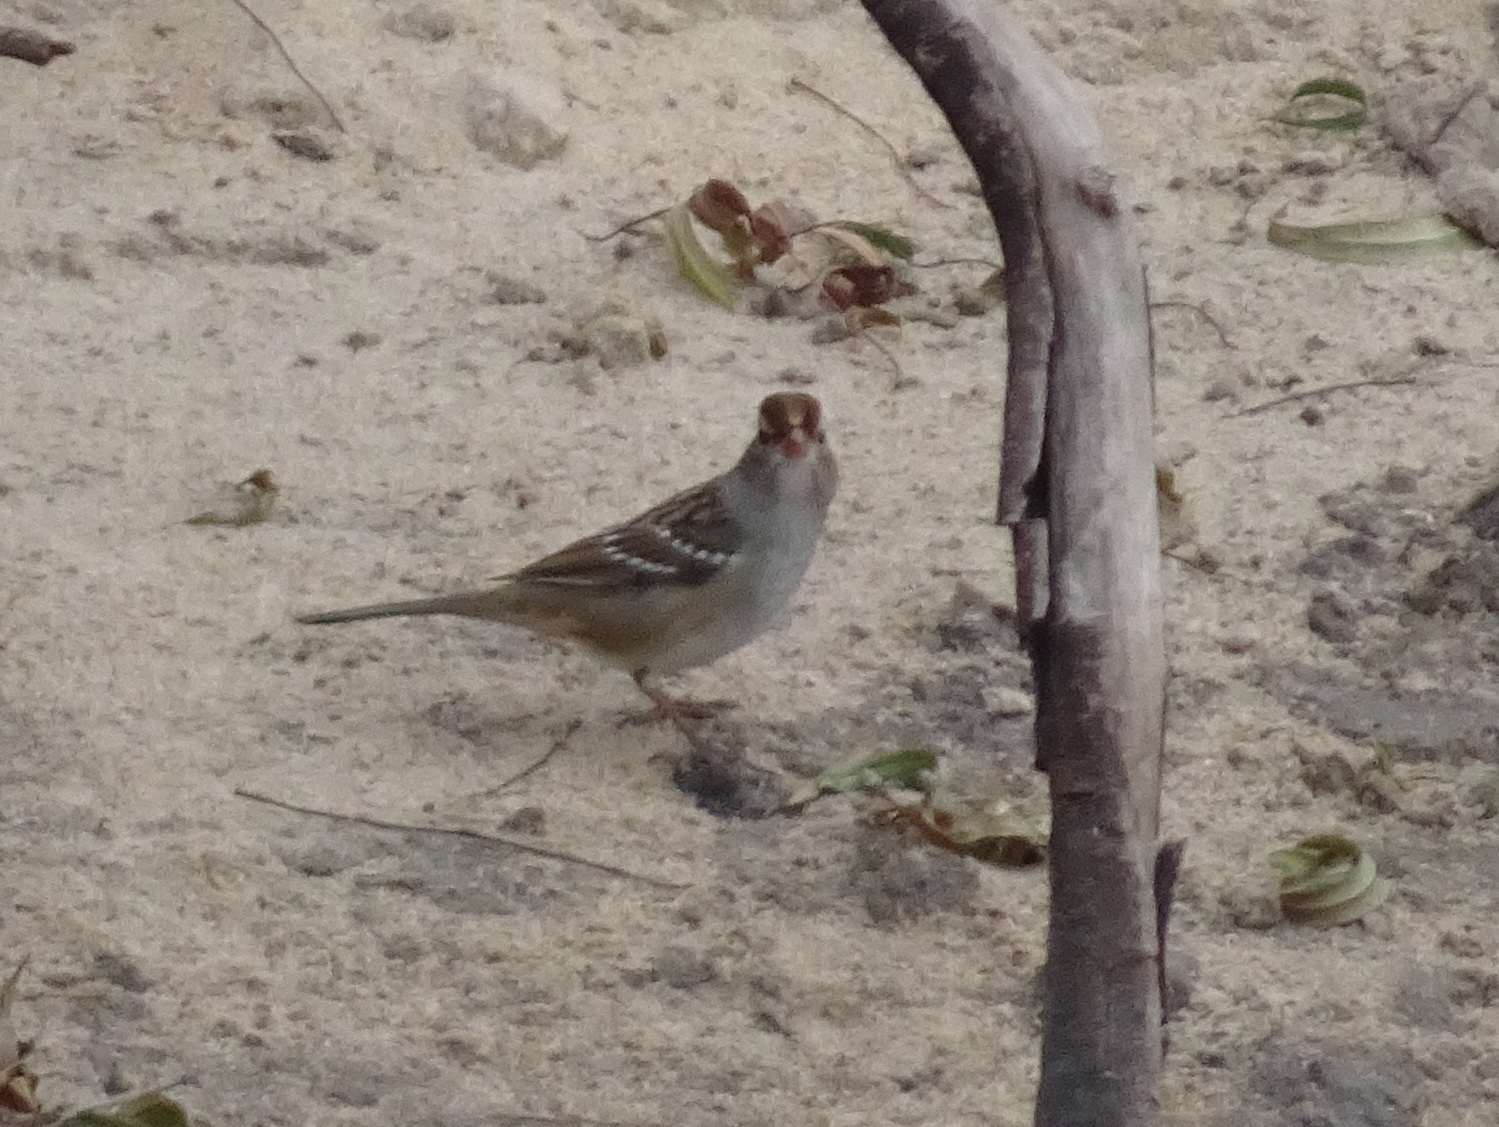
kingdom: Animalia
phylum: Chordata
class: Aves
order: Passeriformes
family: Passerellidae
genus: Zonotrichia
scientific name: Zonotrichia leucophrys
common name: White-crowned sparrow
